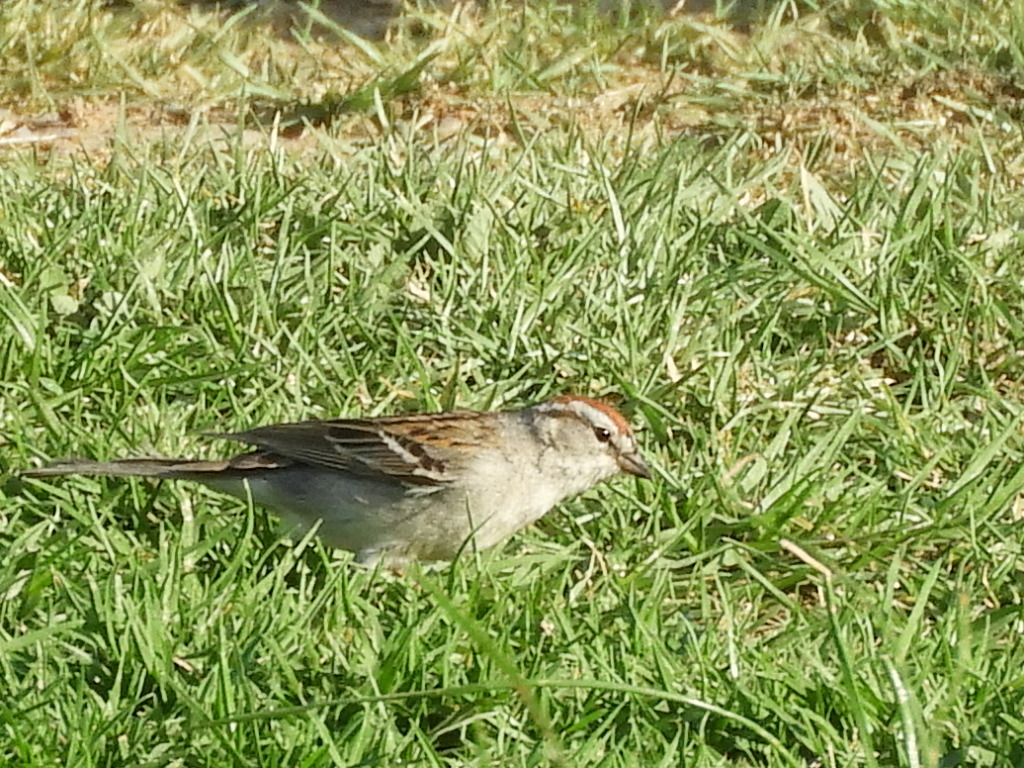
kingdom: Animalia
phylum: Chordata
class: Aves
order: Passeriformes
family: Passerellidae
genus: Spizella
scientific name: Spizella passerina
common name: Chipping sparrow
